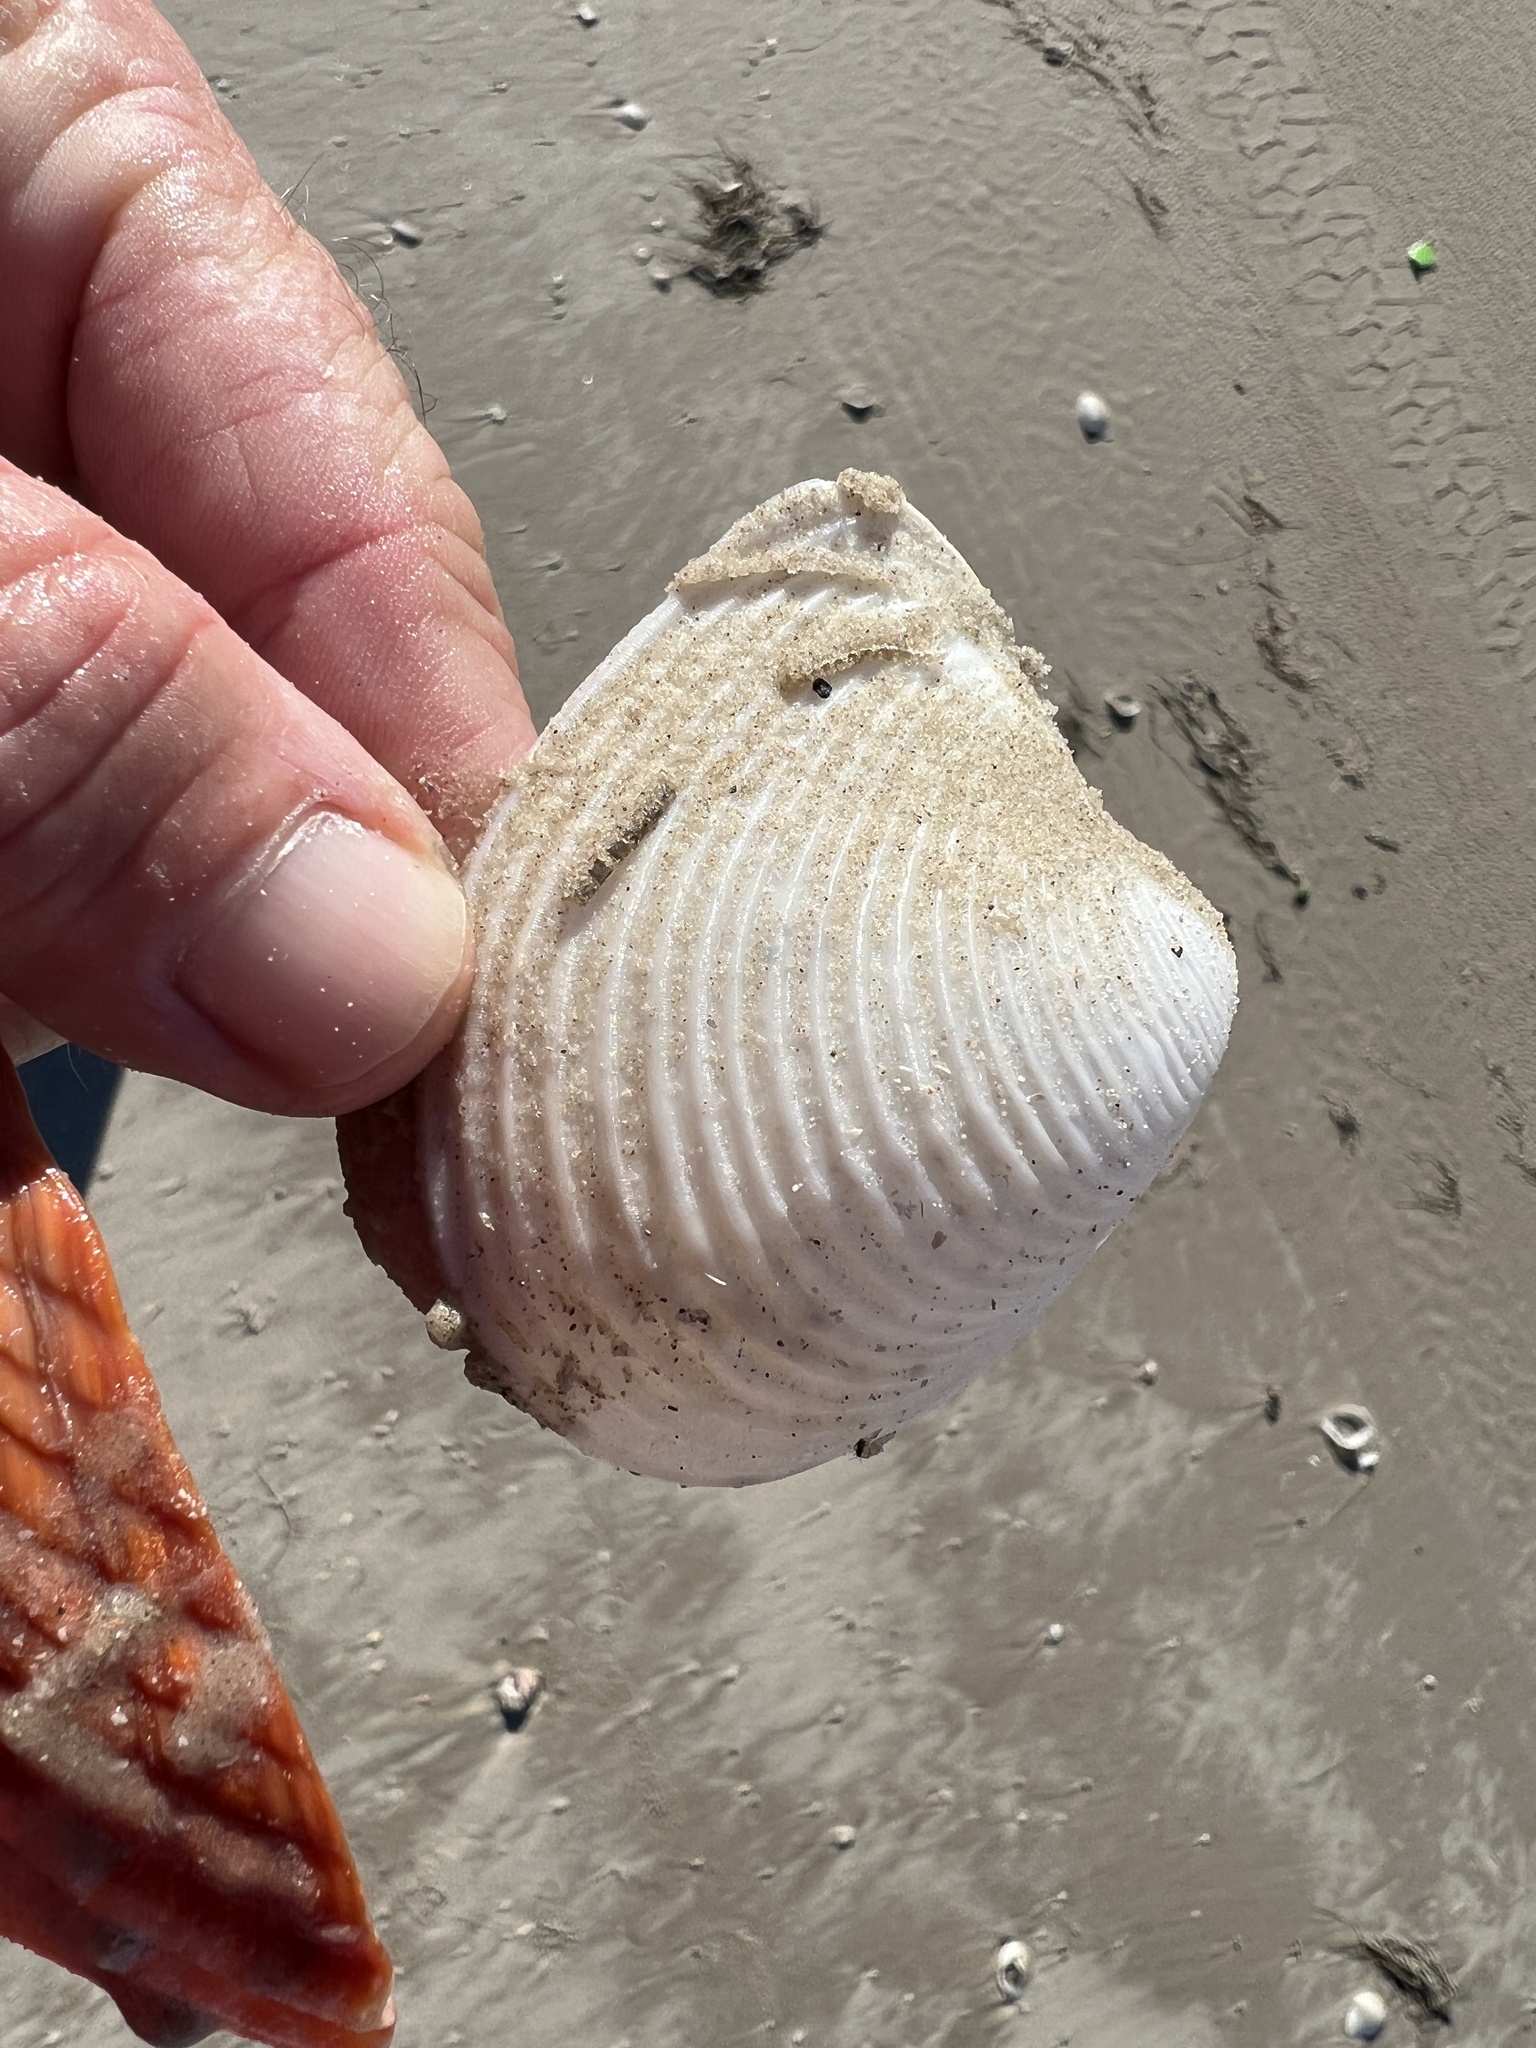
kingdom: Animalia
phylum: Mollusca
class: Bivalvia
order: Venerida
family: Anatinellidae
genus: Raeta
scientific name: Raeta plicatella
